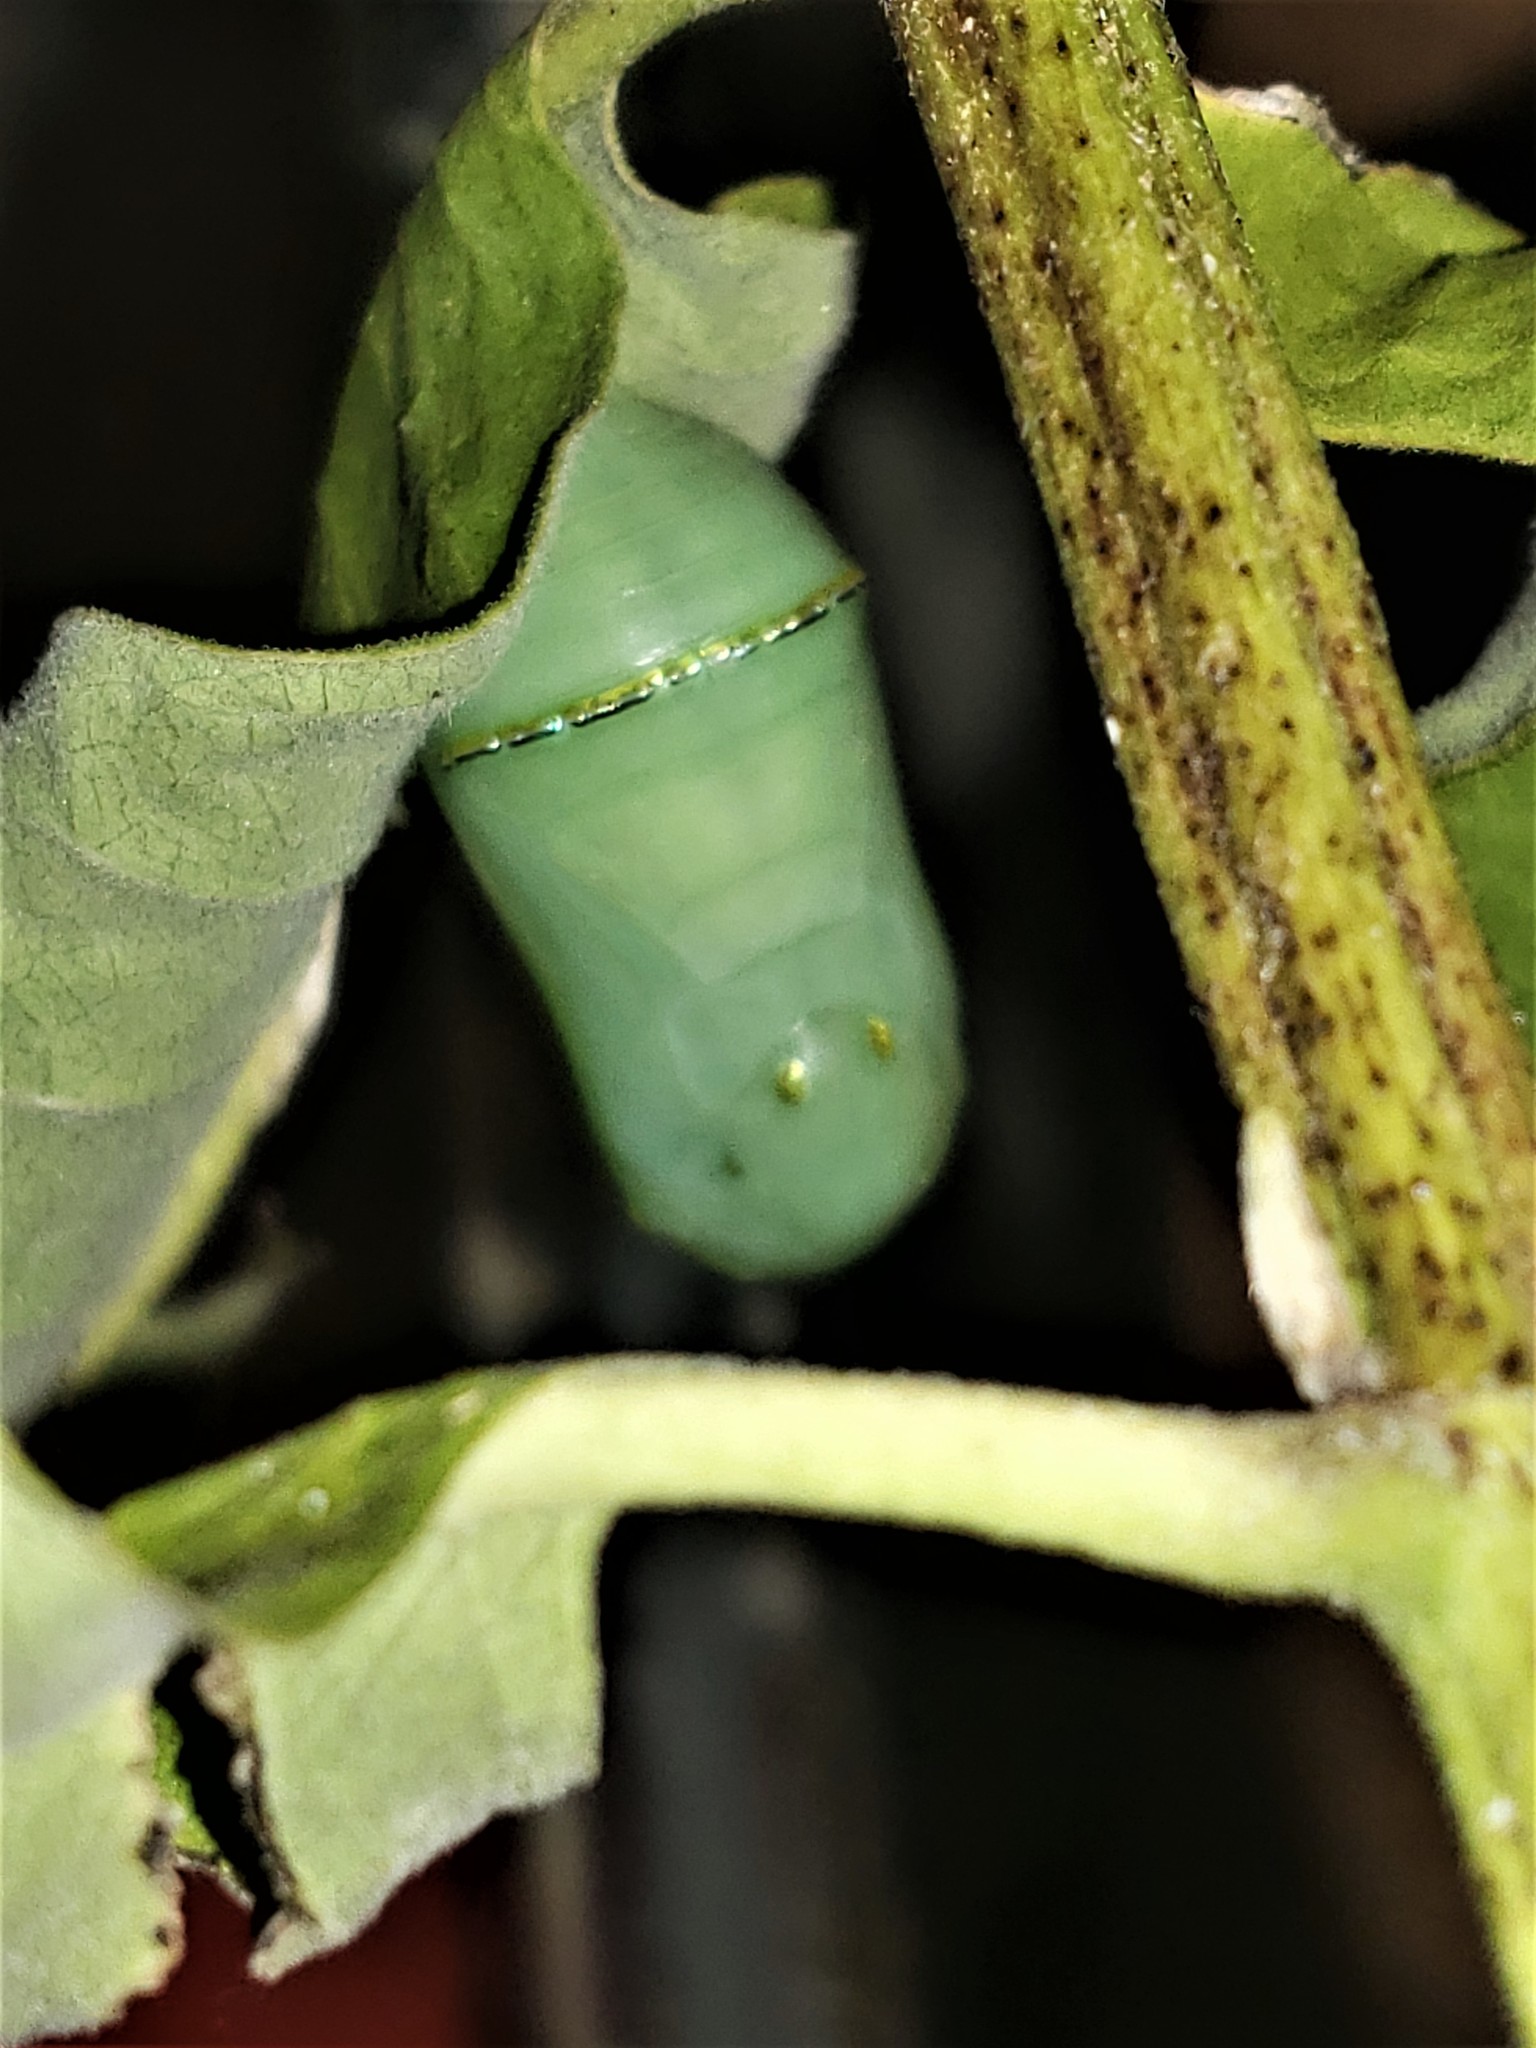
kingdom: Animalia
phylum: Arthropoda
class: Insecta
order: Lepidoptera
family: Nymphalidae
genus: Danaus
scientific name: Danaus plexippus
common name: Monarch
